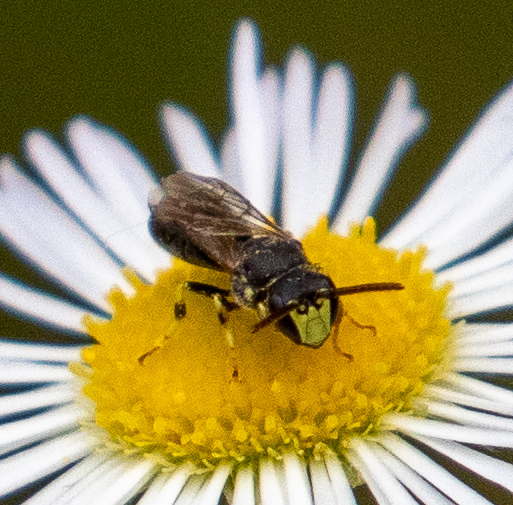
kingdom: Animalia
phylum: Arthropoda
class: Insecta
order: Hymenoptera
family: Colletidae
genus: Hylaeus
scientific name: Hylaeus affinis
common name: Eastern masked bee
